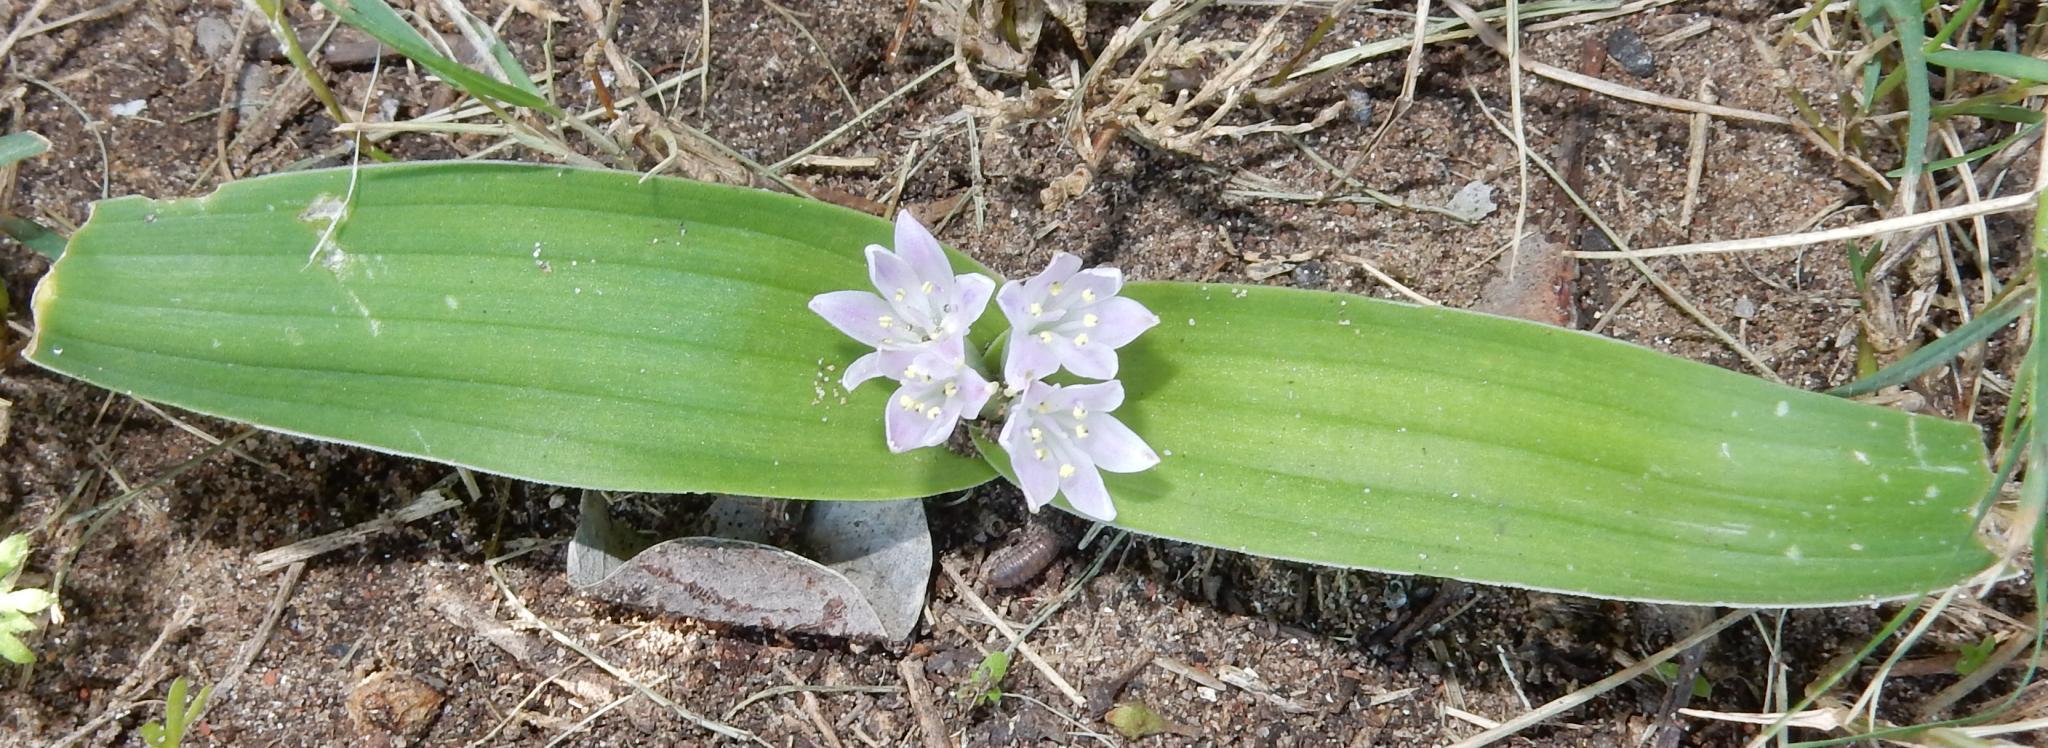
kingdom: Plantae
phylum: Tracheophyta
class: Liliopsida
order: Asparagales
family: Asparagaceae
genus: Lachenalia
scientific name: Lachenalia ensifolia
